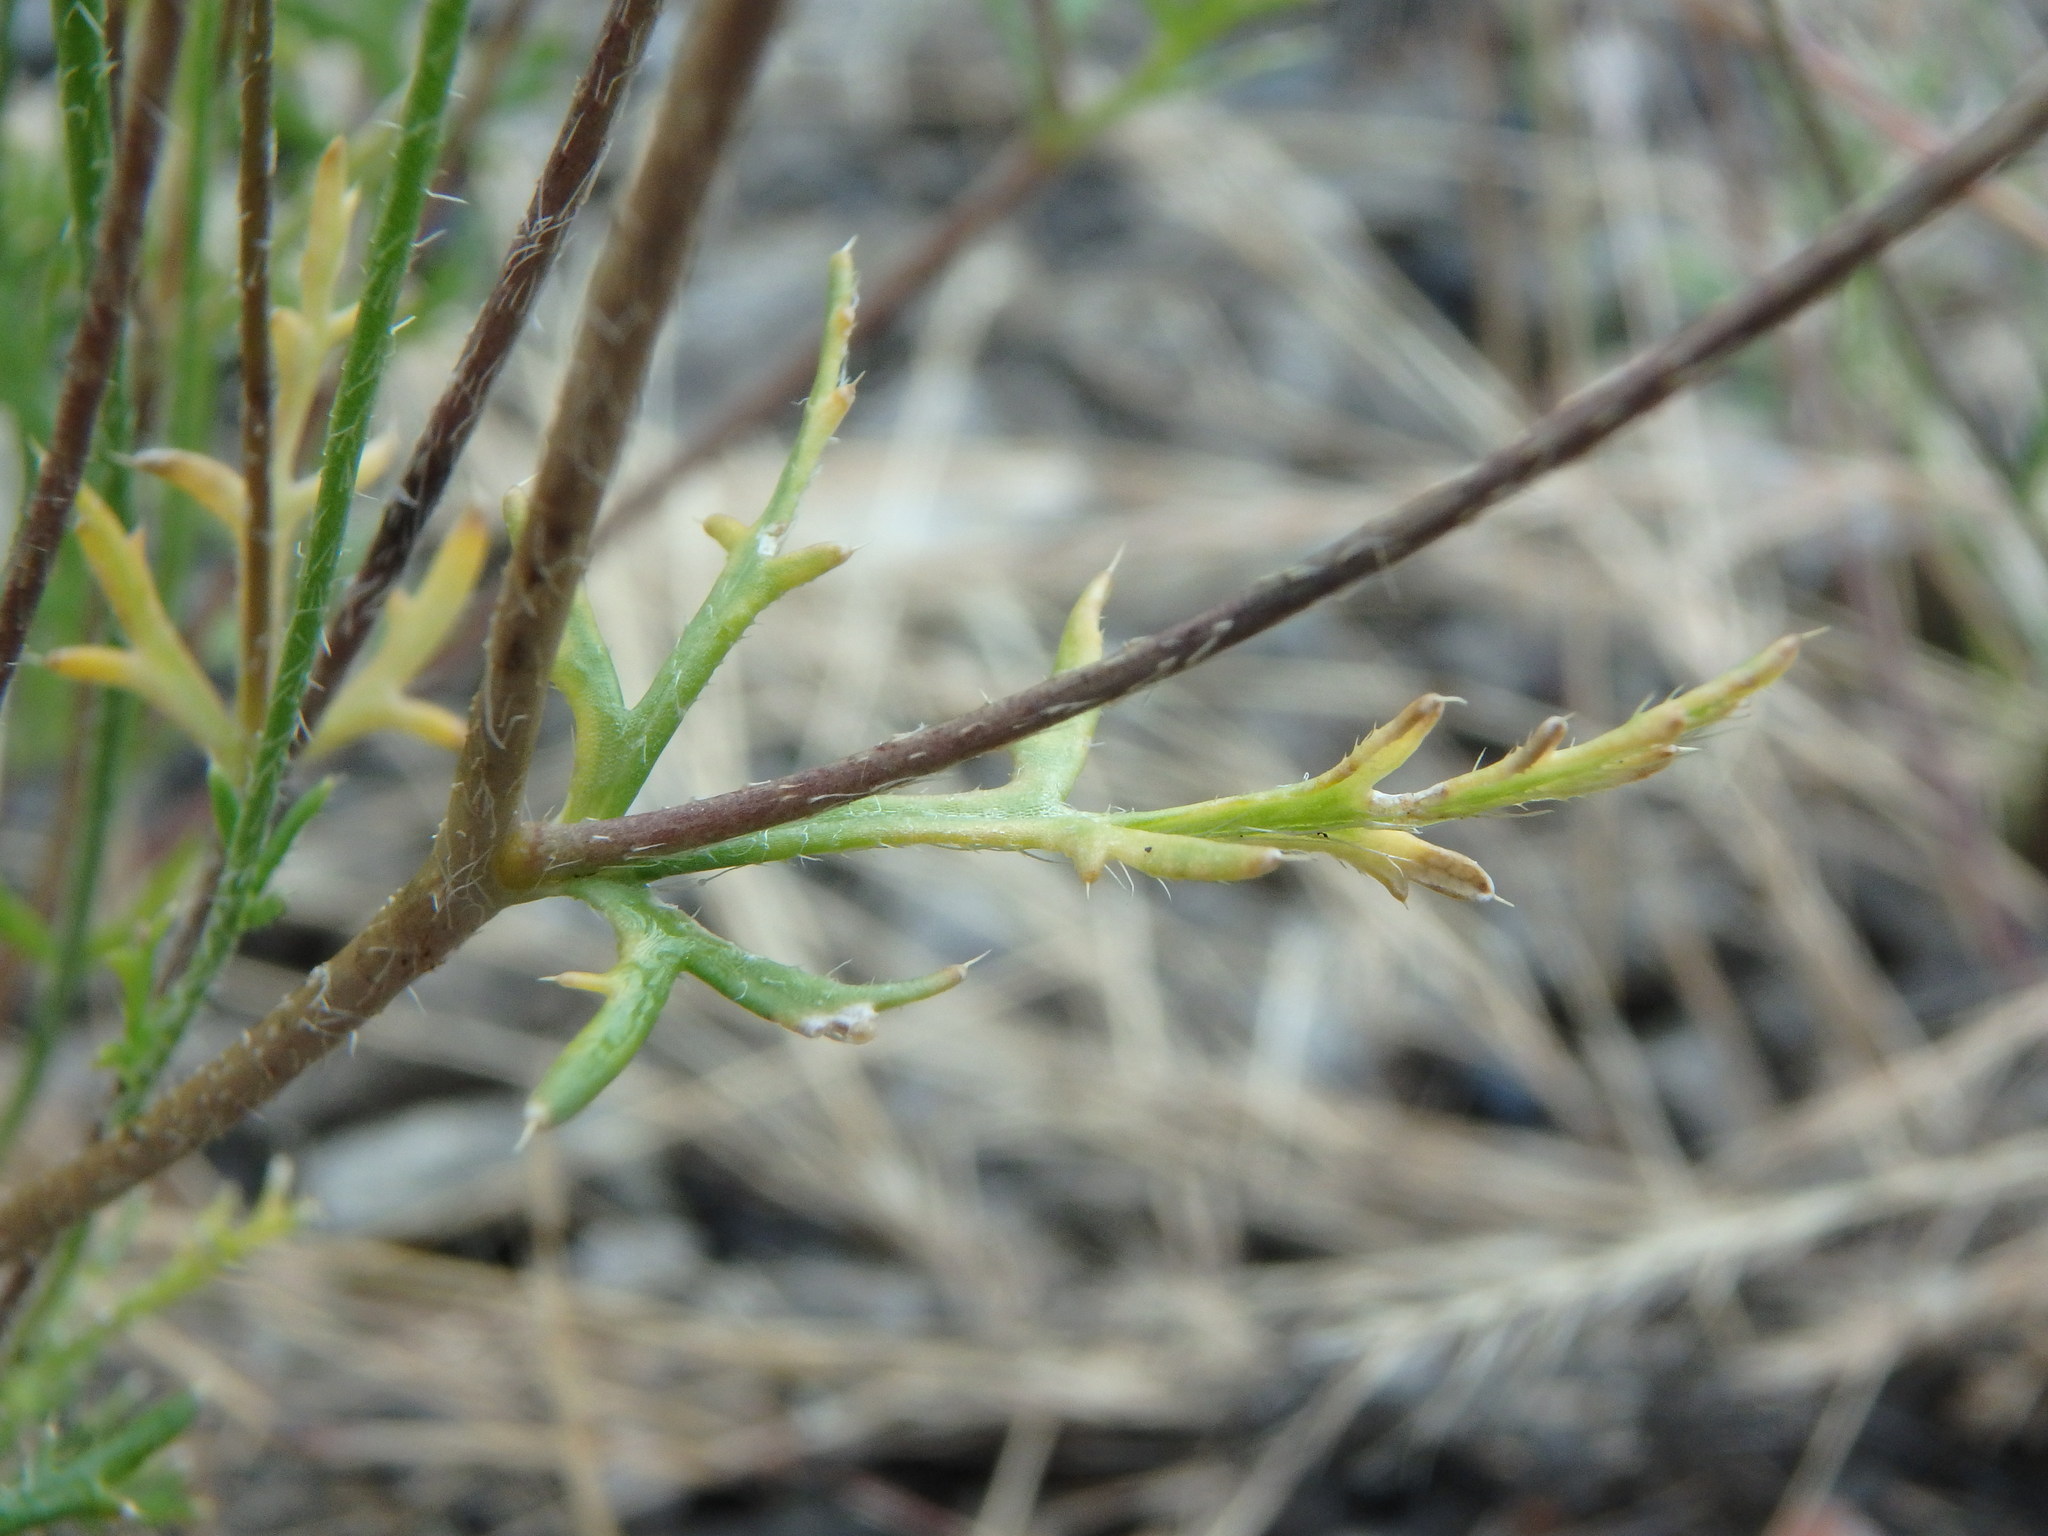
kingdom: Plantae
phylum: Tracheophyta
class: Magnoliopsida
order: Ranunculales
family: Papaveraceae
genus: Roemeria
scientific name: Roemeria argemone
